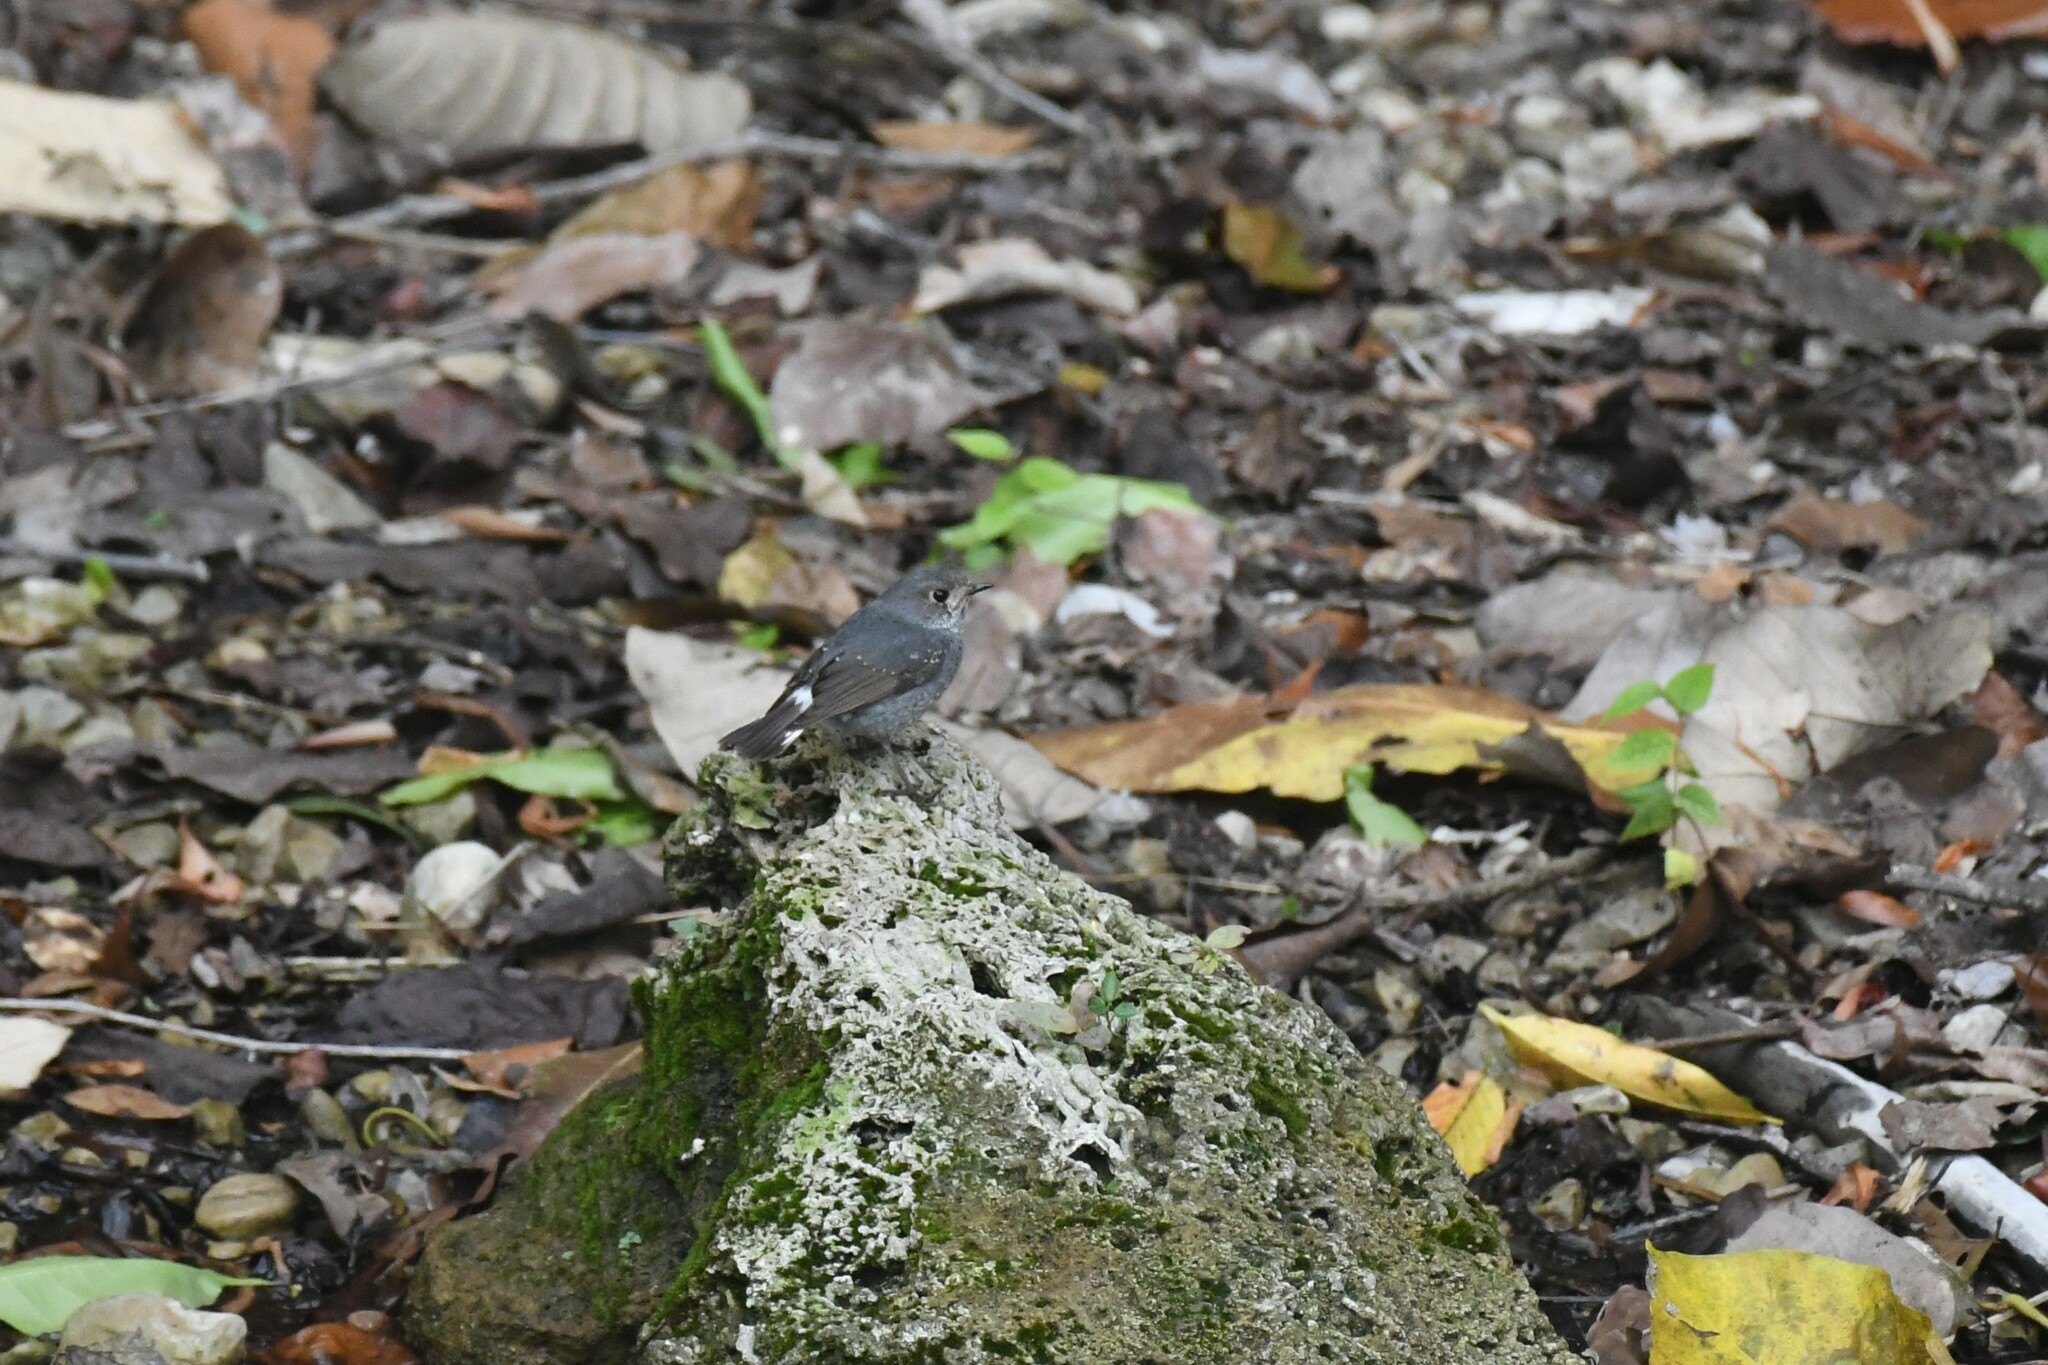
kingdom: Animalia
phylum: Chordata
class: Aves
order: Passeriformes
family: Muscicapidae
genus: Phoenicurus
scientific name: Phoenicurus fuliginosus
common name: Plumbeous water redstart
